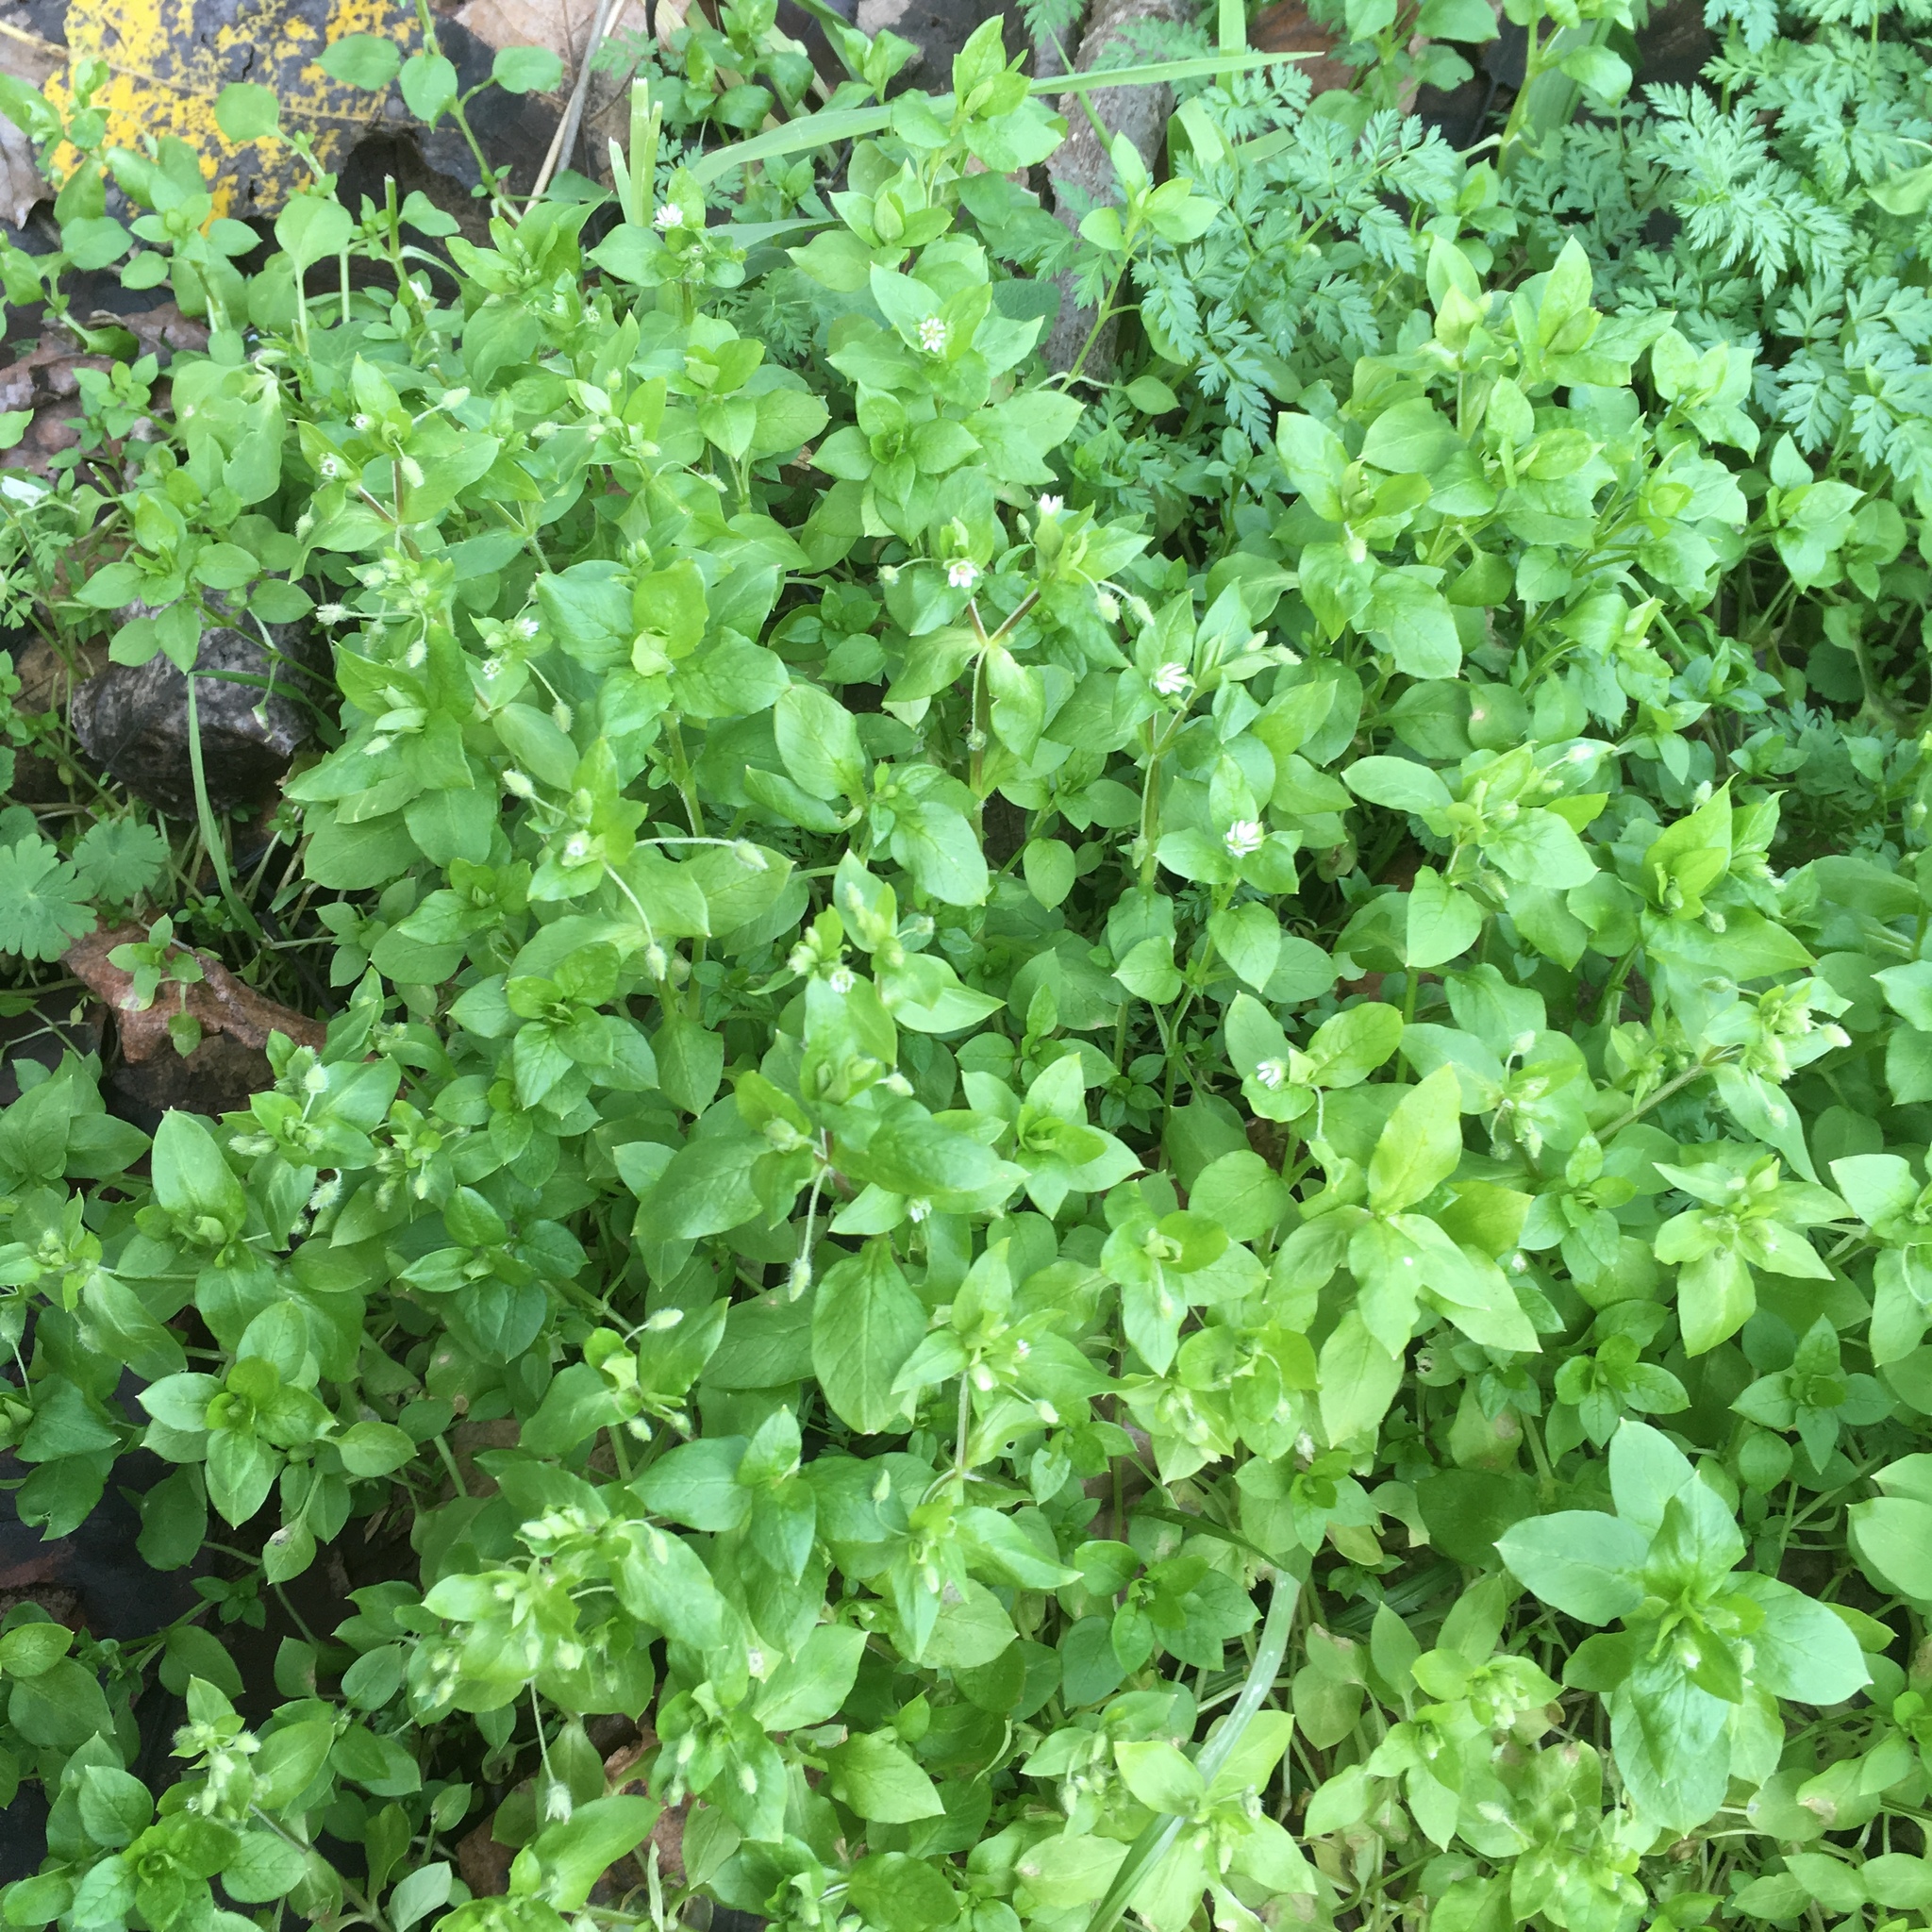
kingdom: Plantae
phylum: Tracheophyta
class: Magnoliopsida
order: Caryophyllales
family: Caryophyllaceae
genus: Stellaria
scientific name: Stellaria media
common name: Common chickweed
